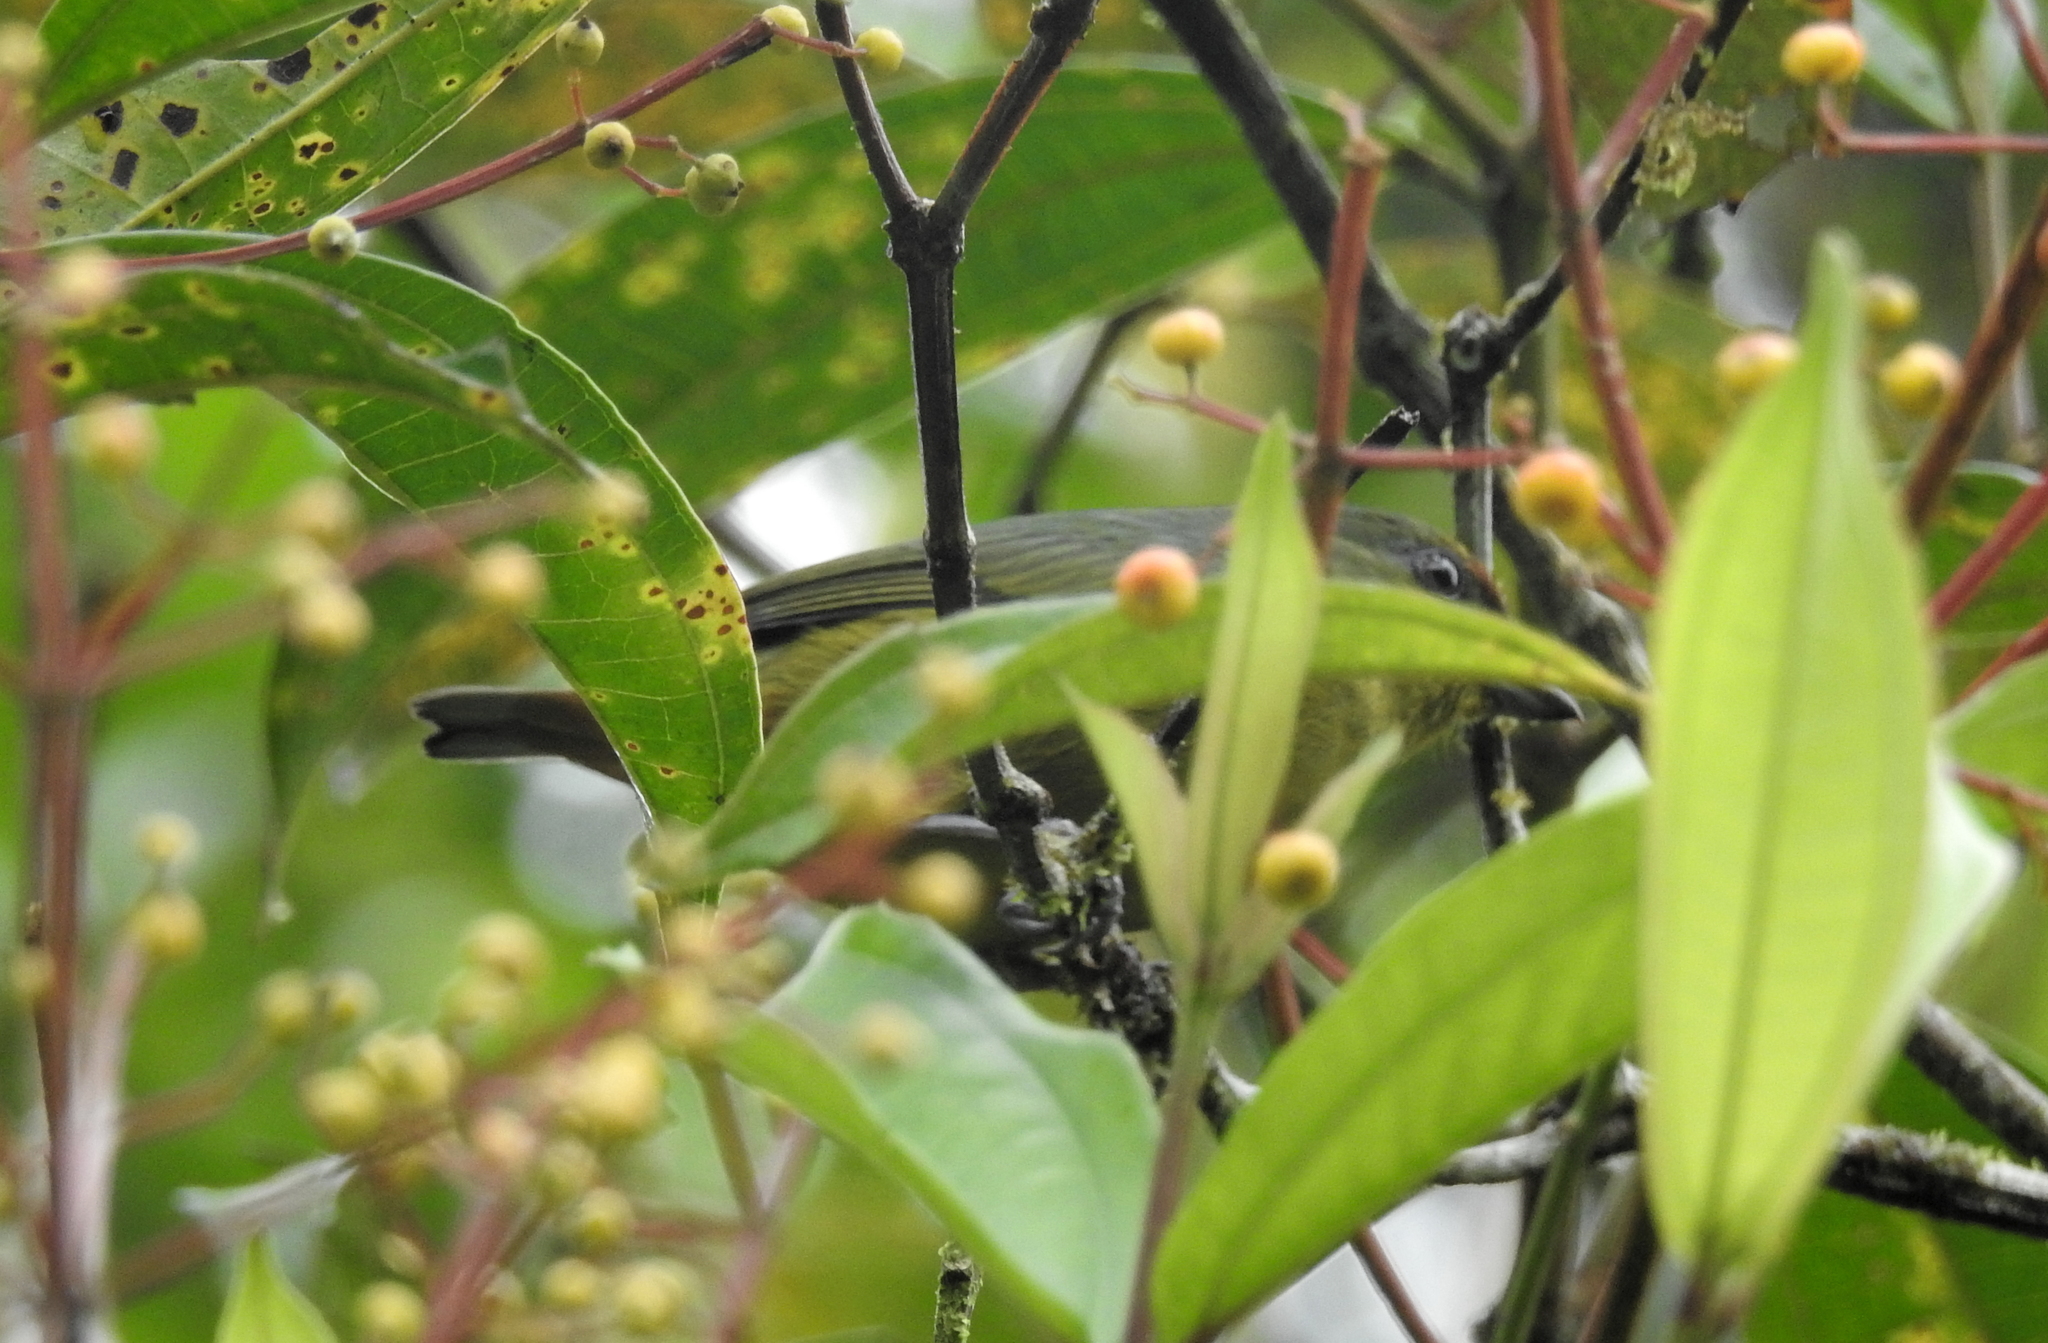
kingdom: Animalia
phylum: Chordata
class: Aves
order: Passeriformes
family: Fringillidae
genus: Euphonia
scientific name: Euphonia gouldi
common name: Olive-backed euphonia
